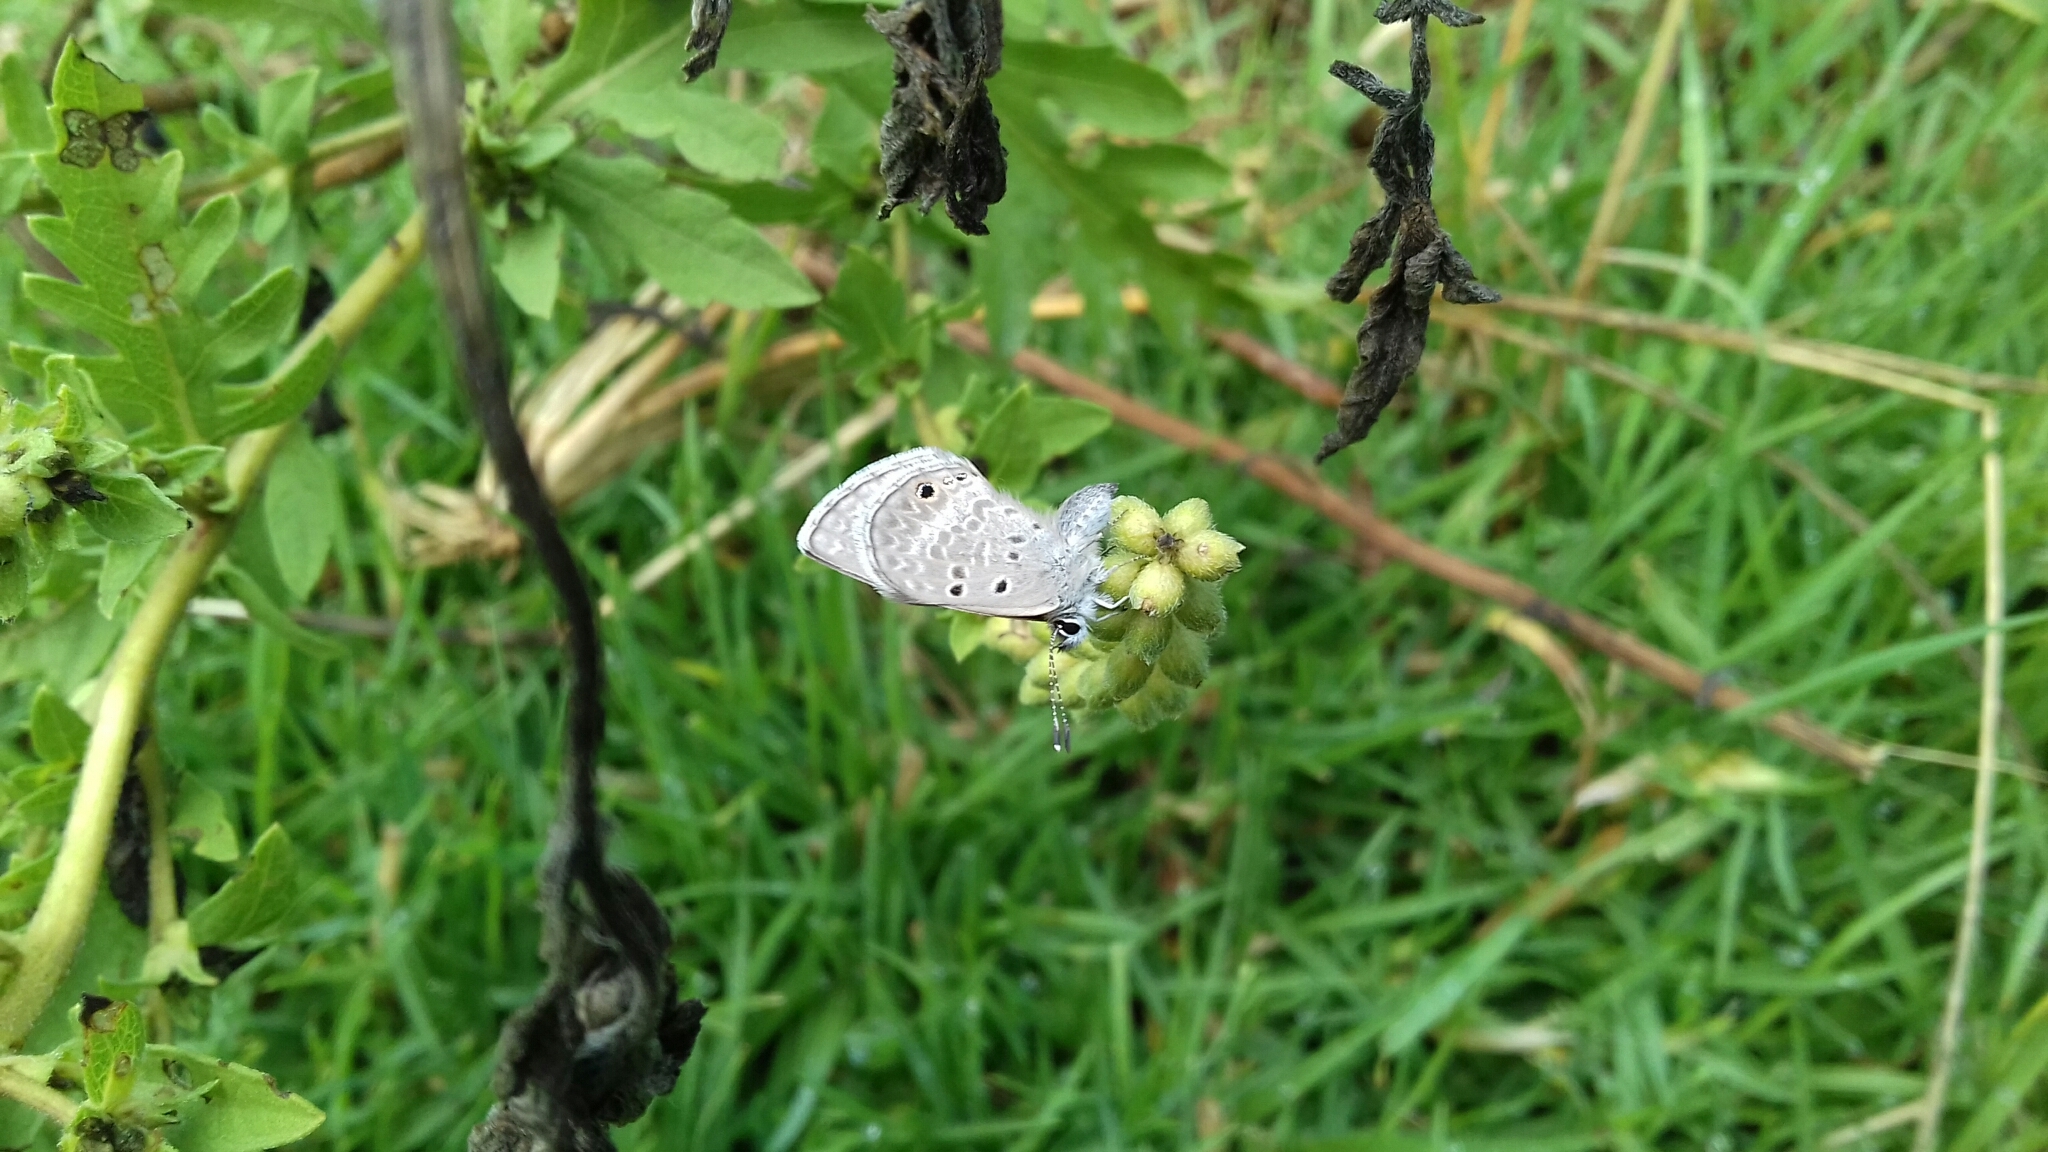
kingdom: Animalia
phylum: Arthropoda
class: Insecta
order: Lepidoptera
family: Lycaenidae
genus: Echinargus
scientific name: Echinargus isola
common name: Reakirt's blue
